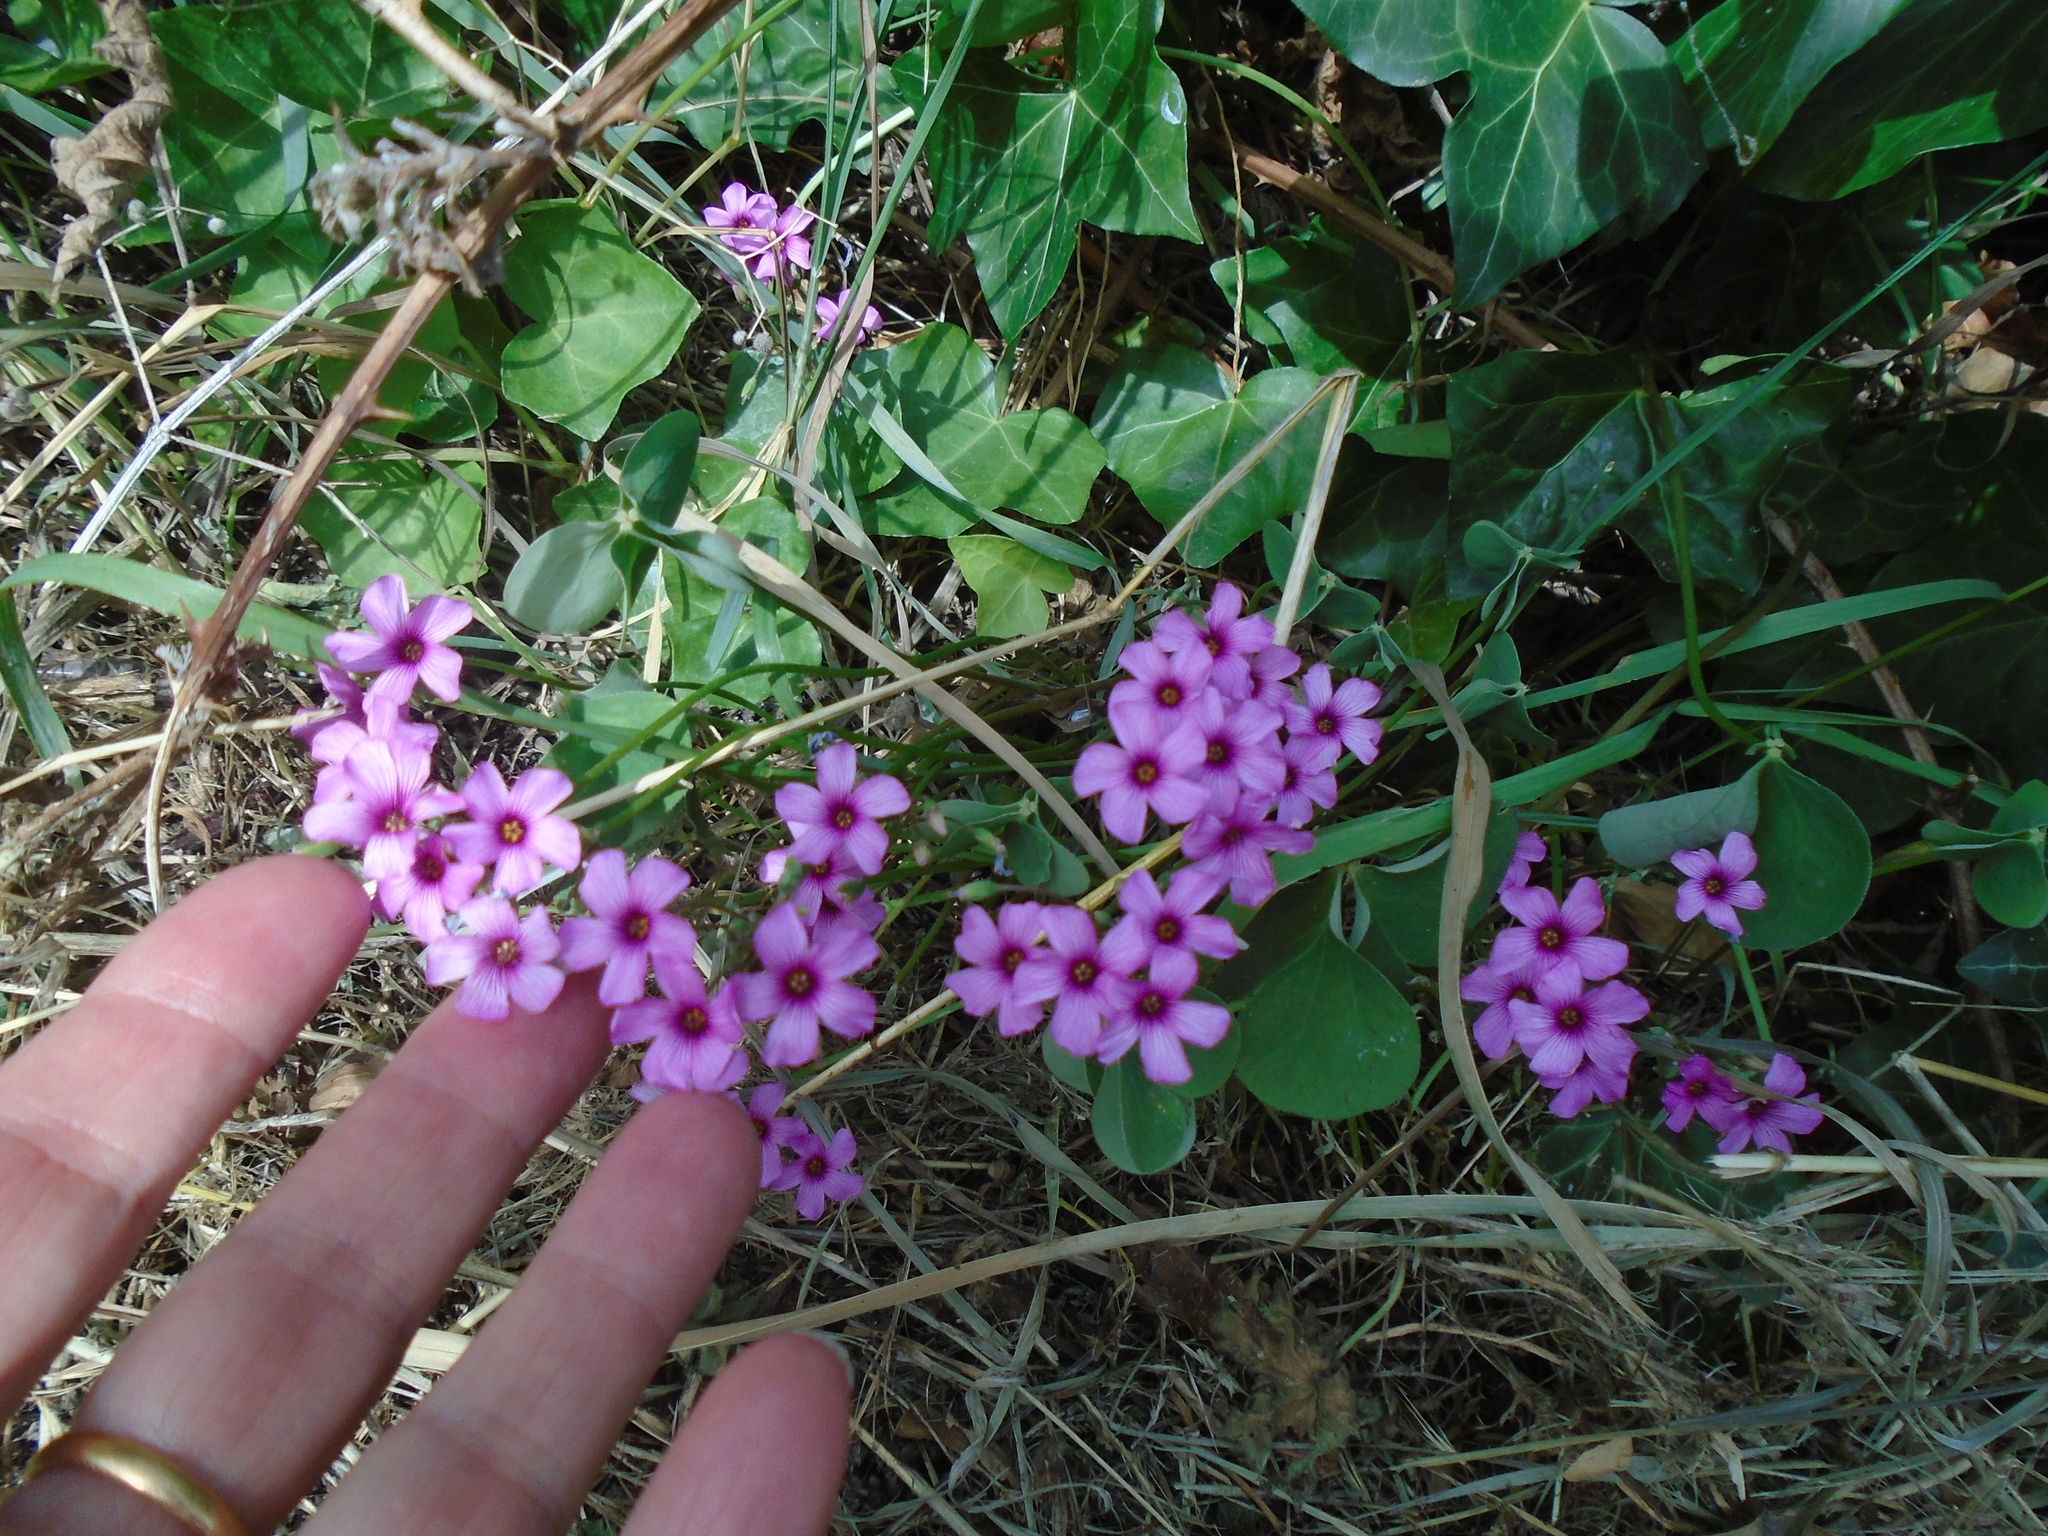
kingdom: Plantae
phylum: Tracheophyta
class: Magnoliopsida
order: Oxalidales
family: Oxalidaceae
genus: Oxalis
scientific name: Oxalis articulata
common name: Pink-sorrel
